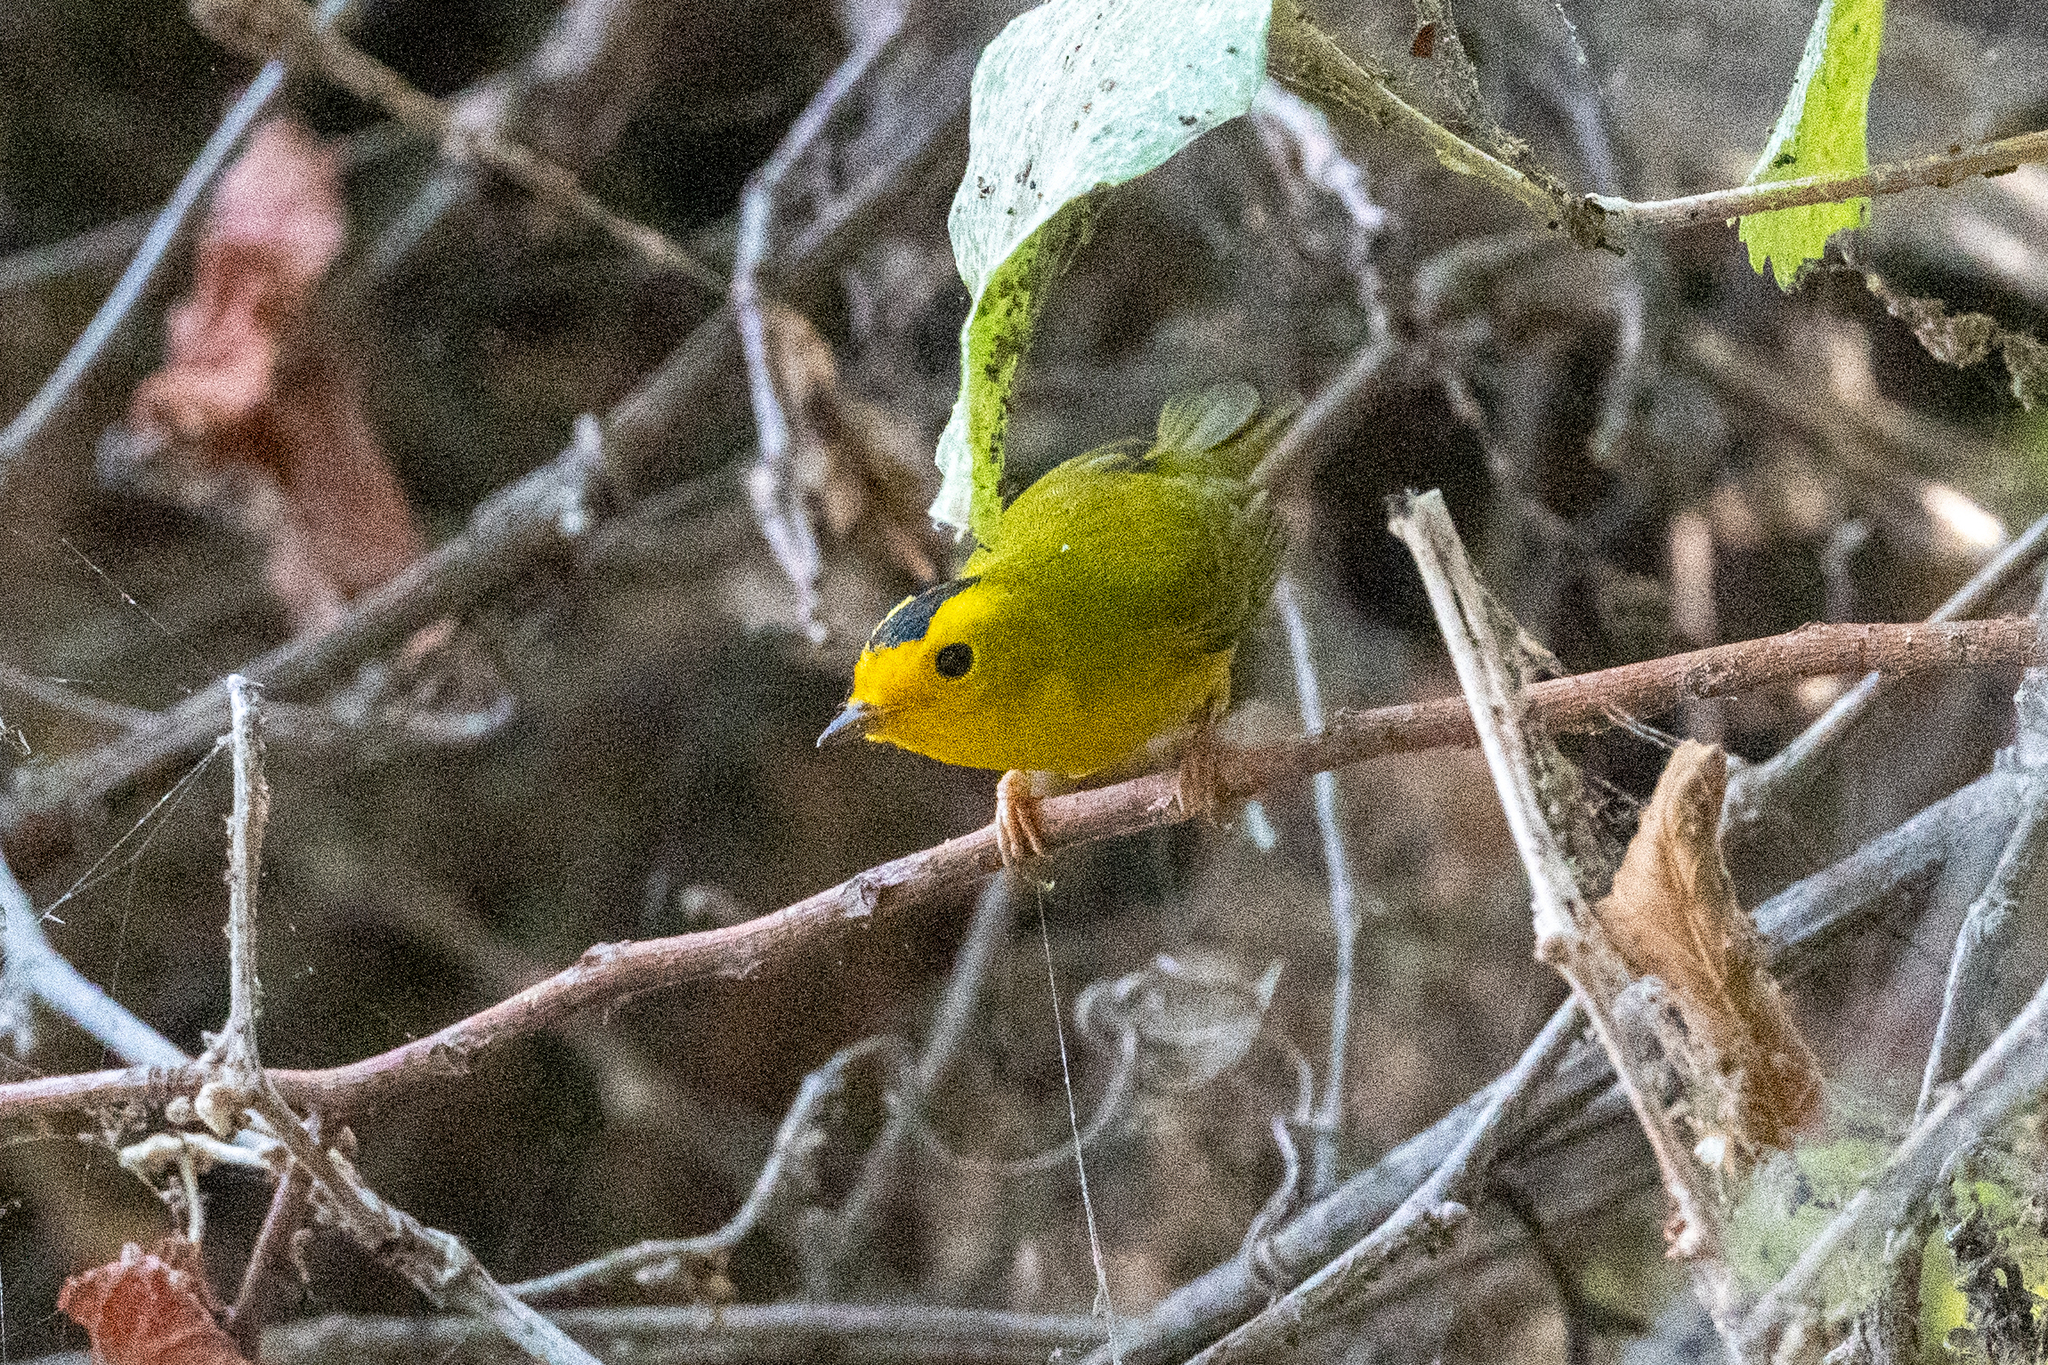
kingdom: Animalia
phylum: Chordata
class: Aves
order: Passeriformes
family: Parulidae
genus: Cardellina
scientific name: Cardellina pusilla
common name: Wilson's warbler
